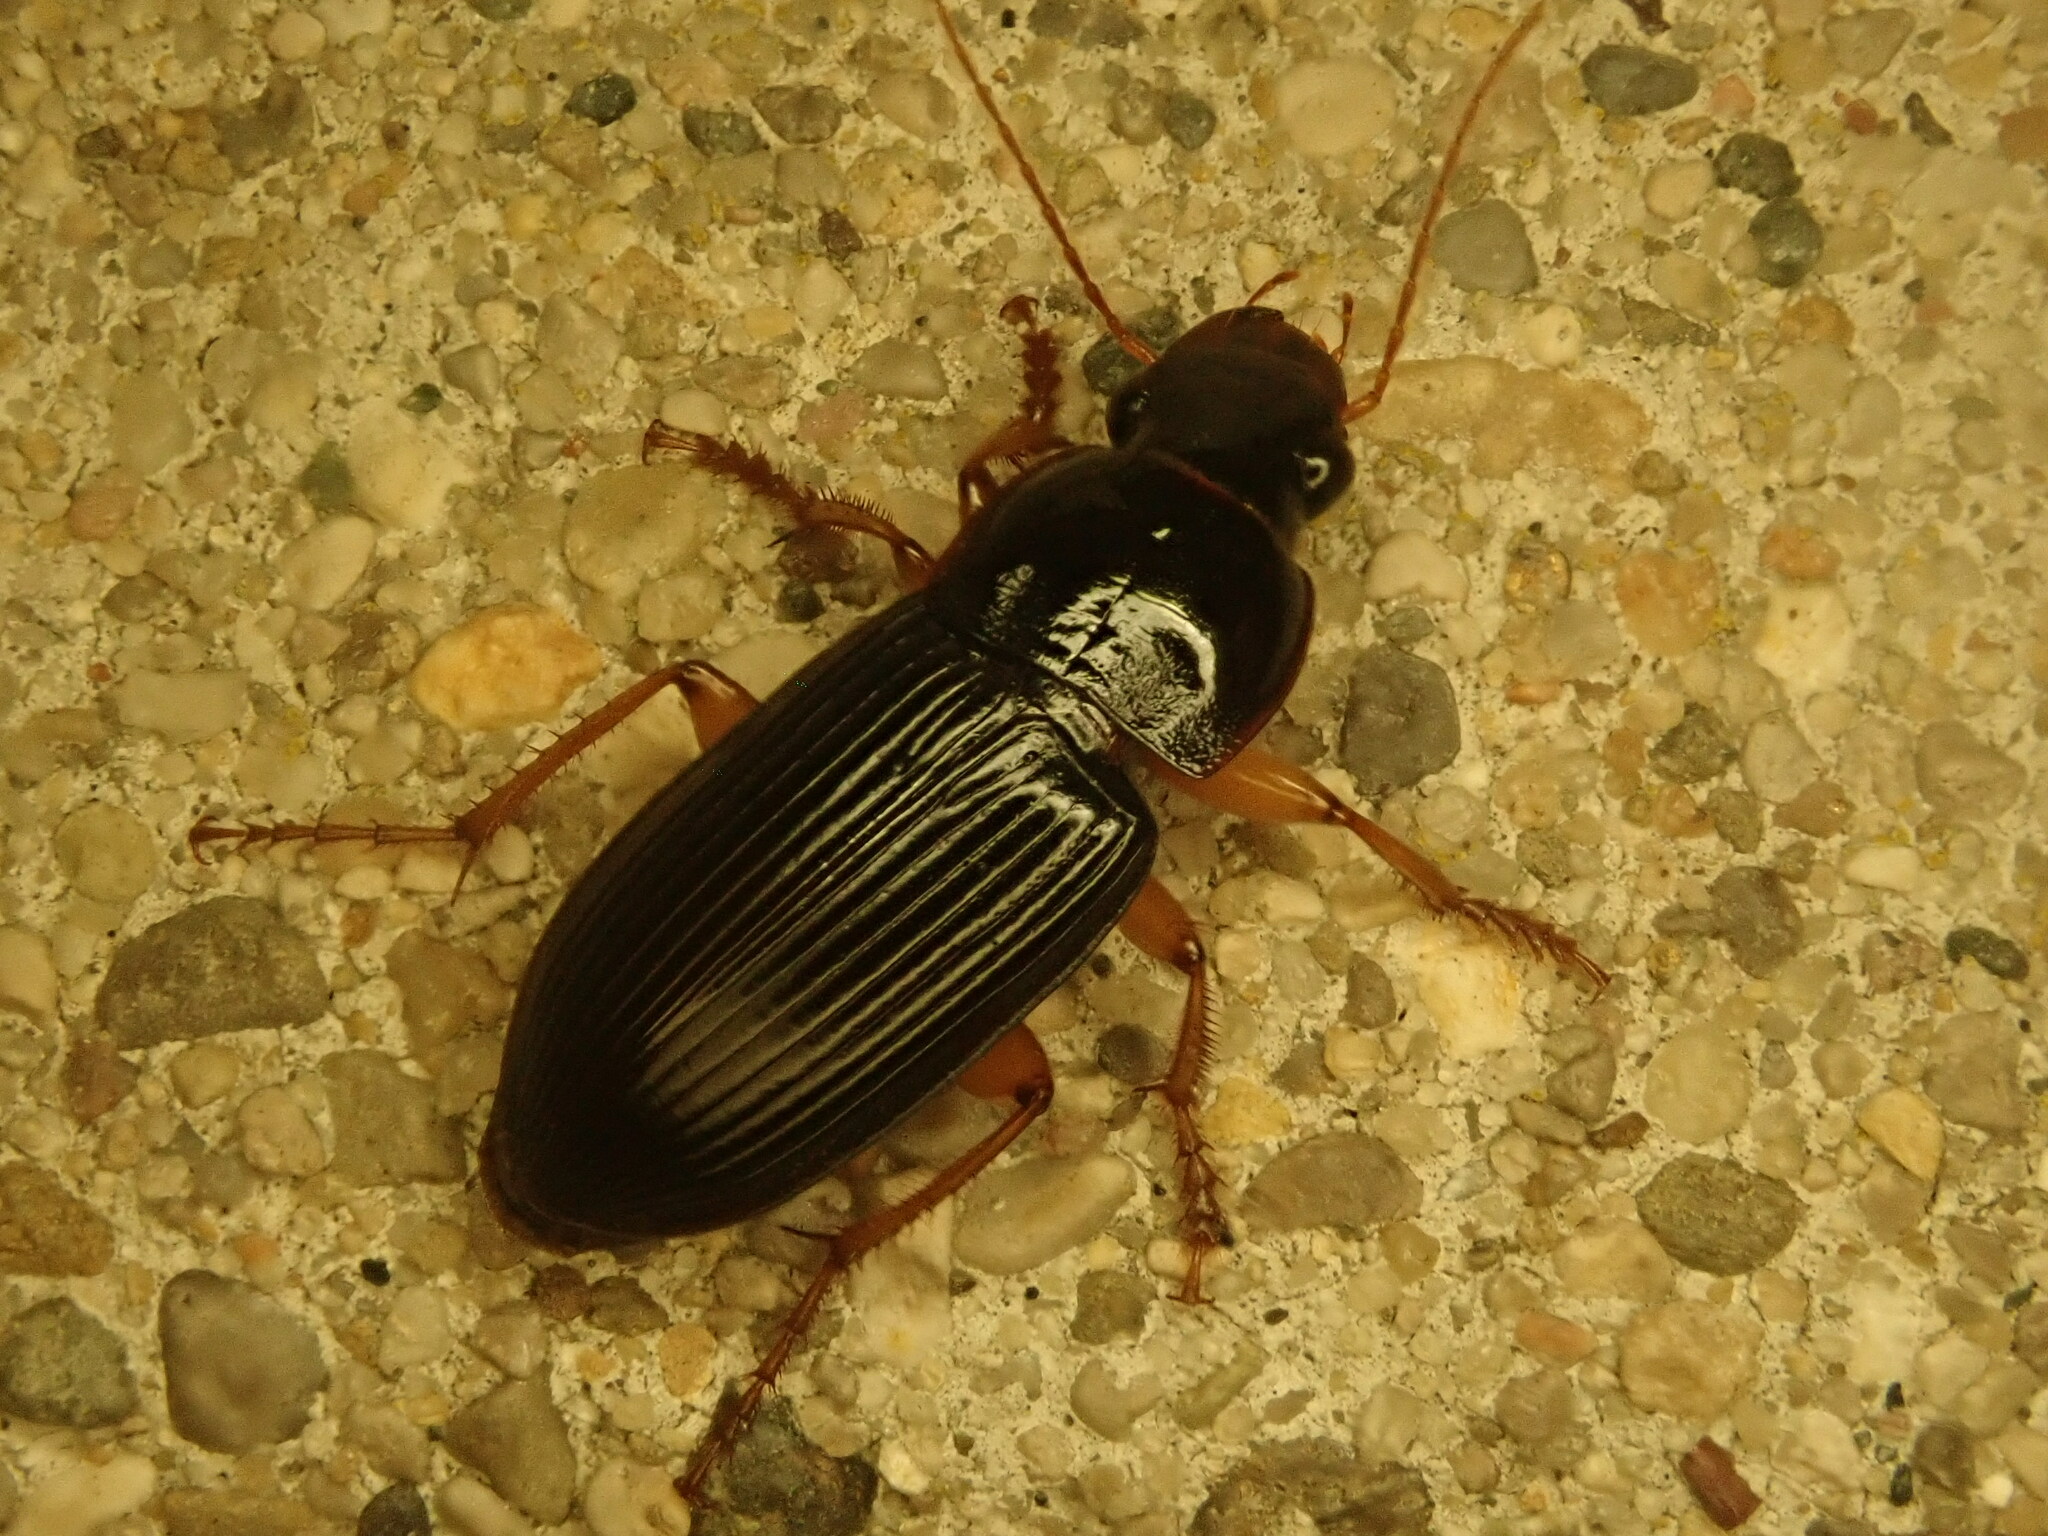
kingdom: Animalia
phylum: Arthropoda
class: Insecta
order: Coleoptera
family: Carabidae
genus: Harpalus
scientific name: Harpalus pensylvanicus
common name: Pennsylvania dingy ground beetle
